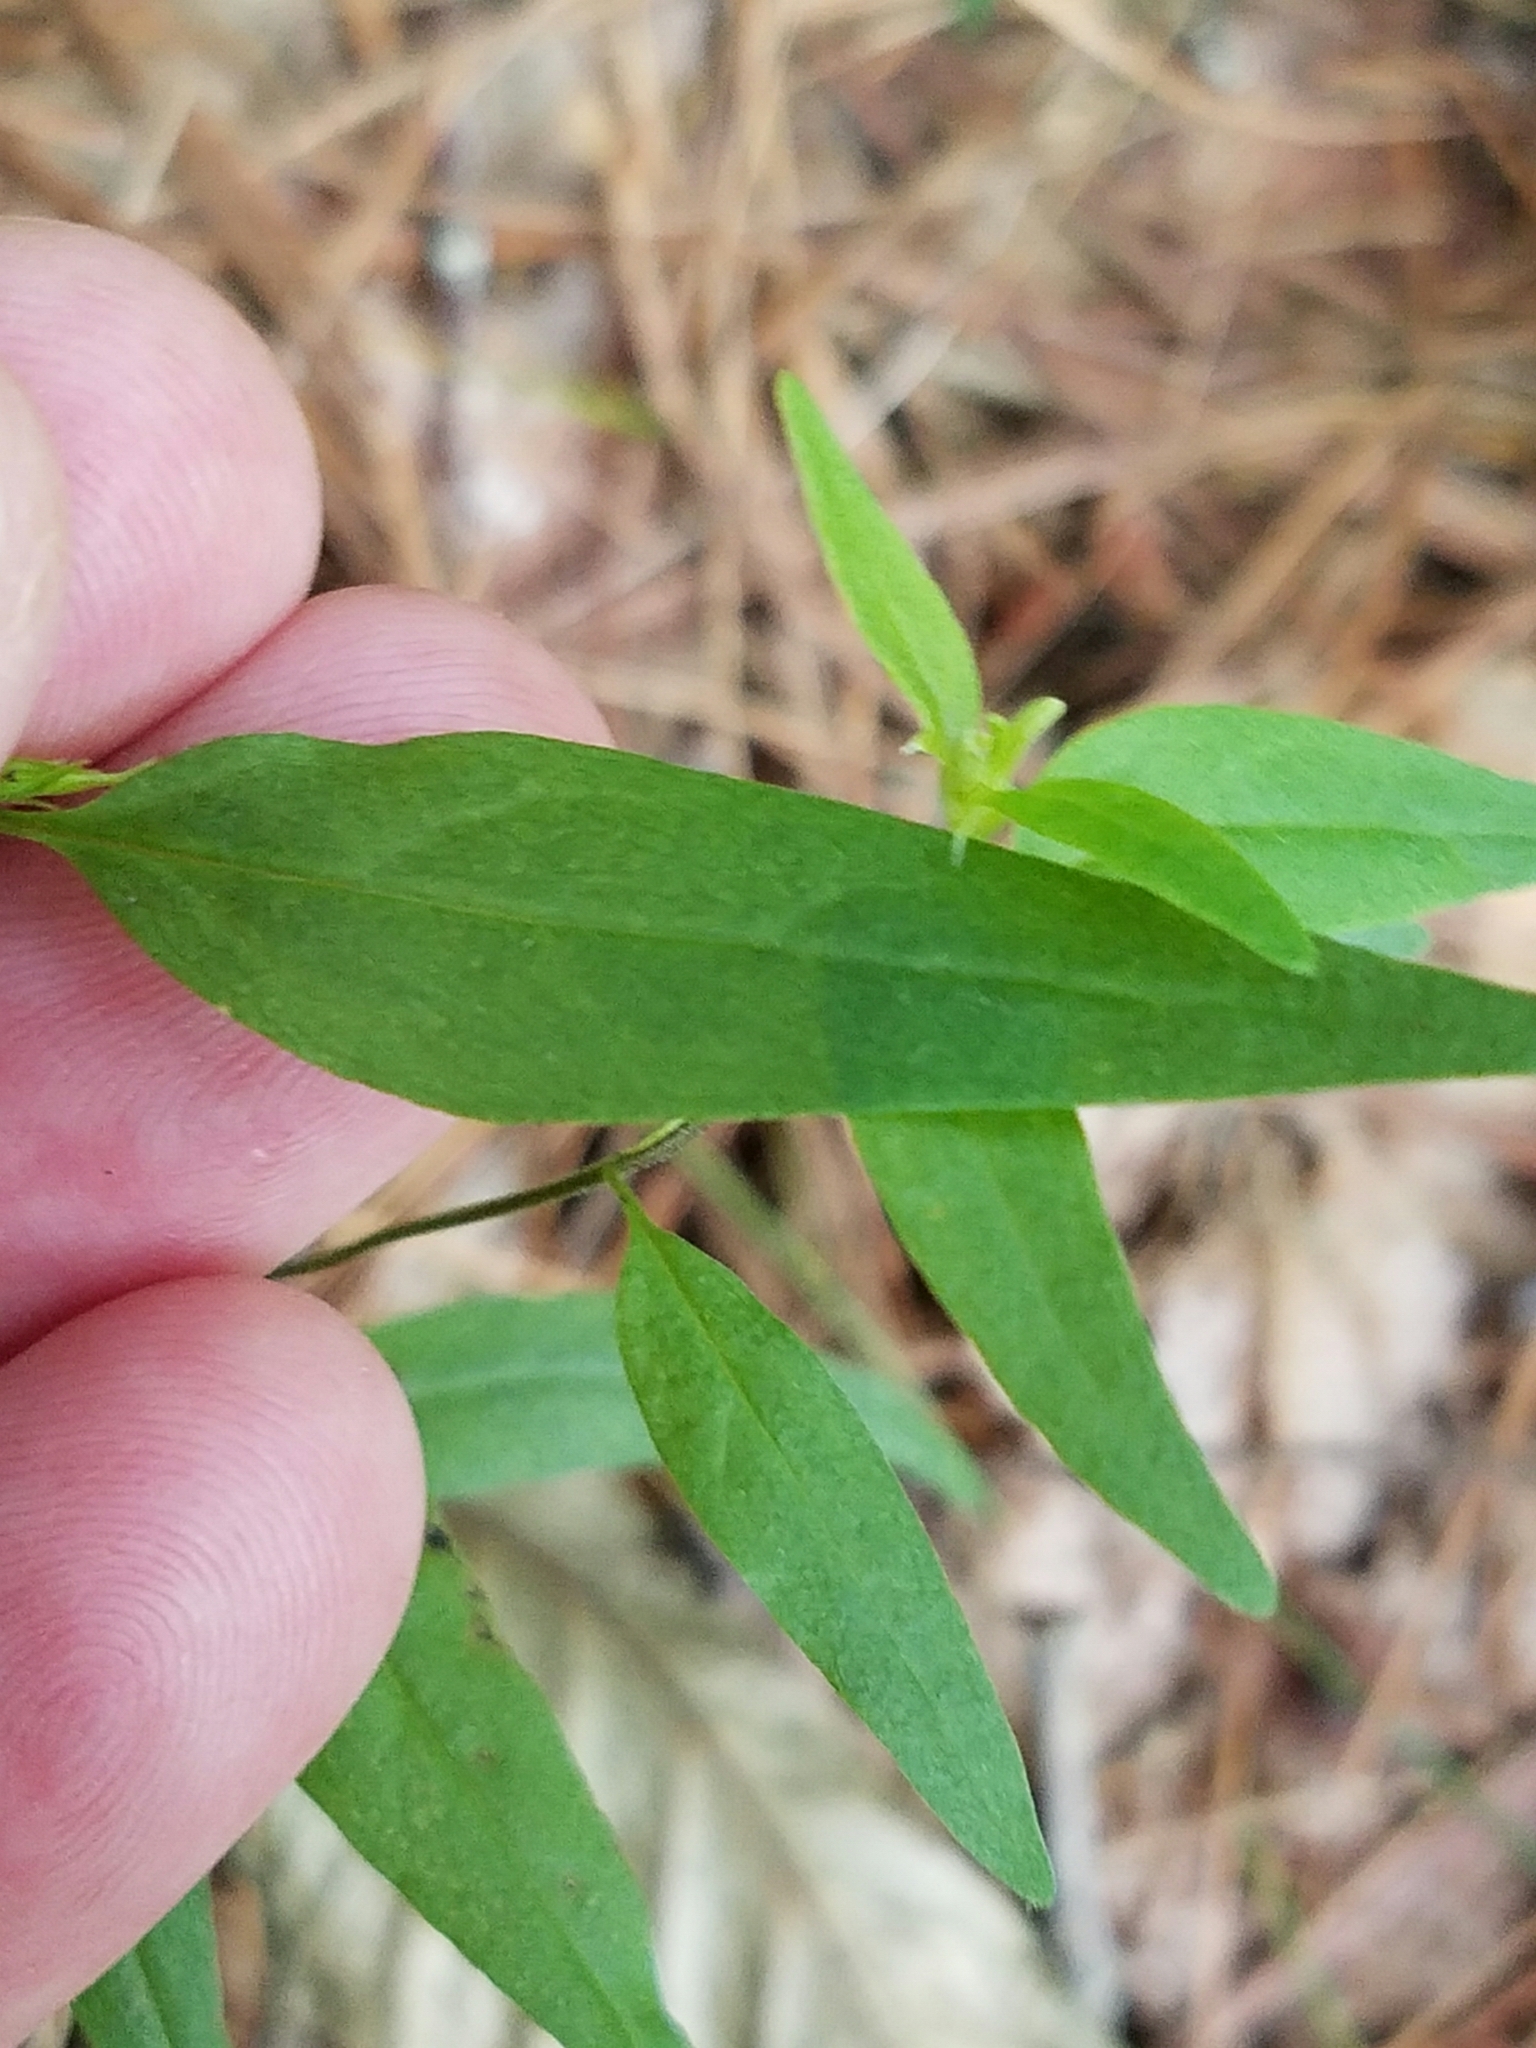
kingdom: Plantae
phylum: Tracheophyta
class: Magnoliopsida
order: Lamiales
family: Orobanchaceae
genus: Melampyrum
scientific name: Melampyrum lineare
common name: American cow-wheat
